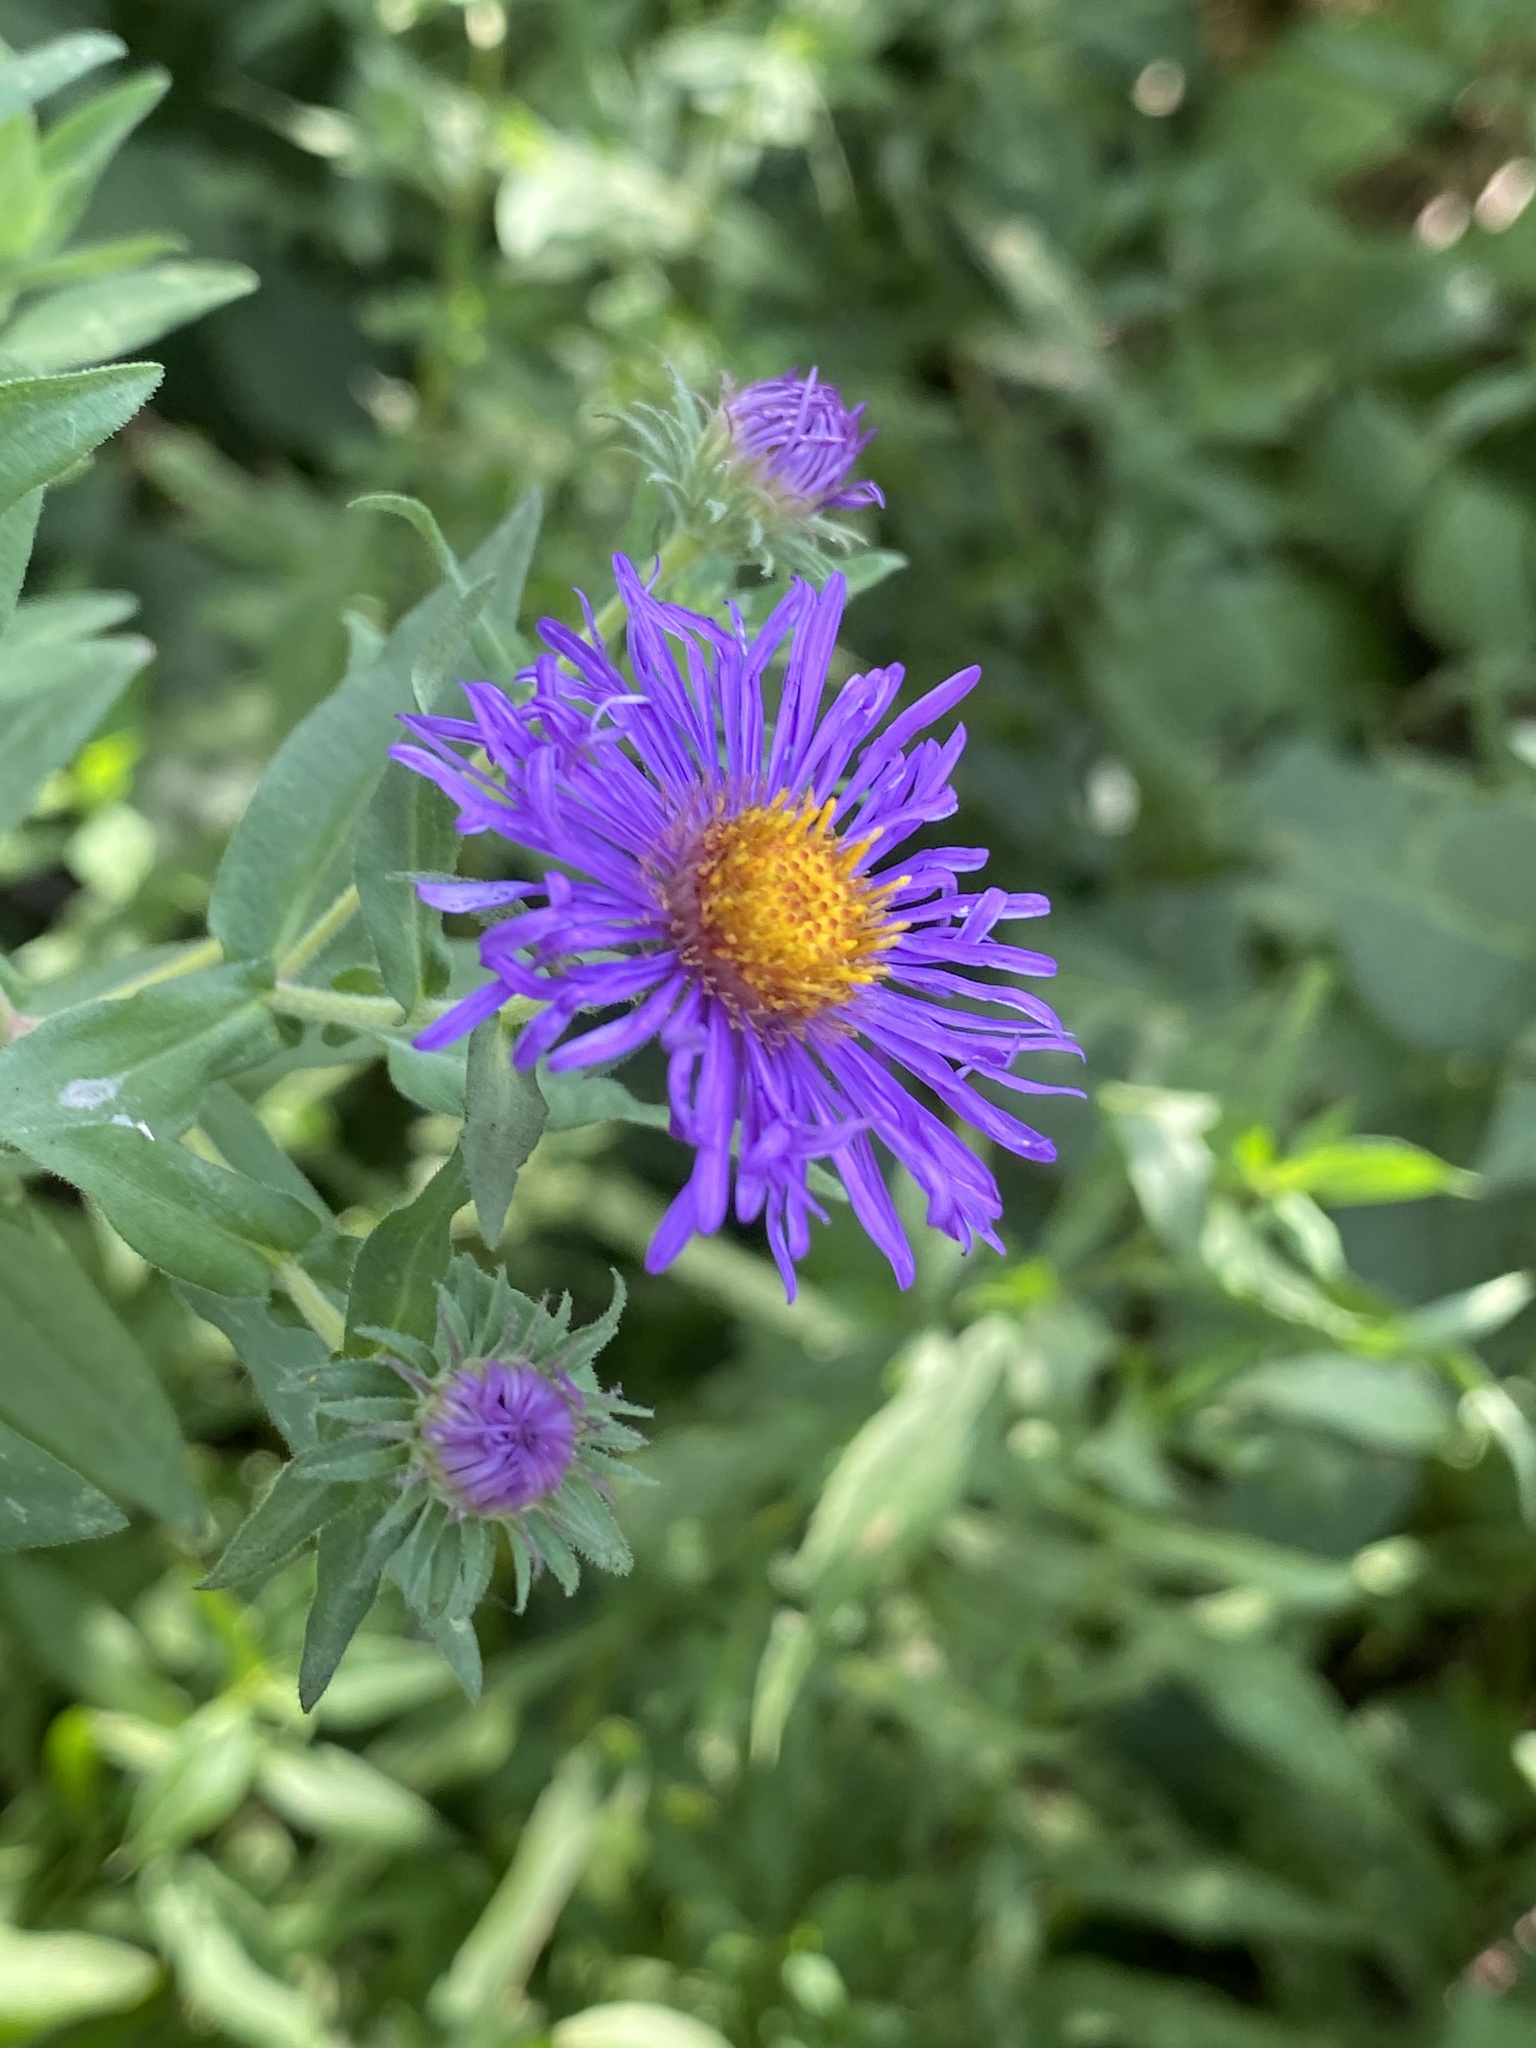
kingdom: Plantae
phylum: Tracheophyta
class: Magnoliopsida
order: Asterales
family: Asteraceae
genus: Symphyotrichum
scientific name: Symphyotrichum novae-angliae
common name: Michaelmas daisy
